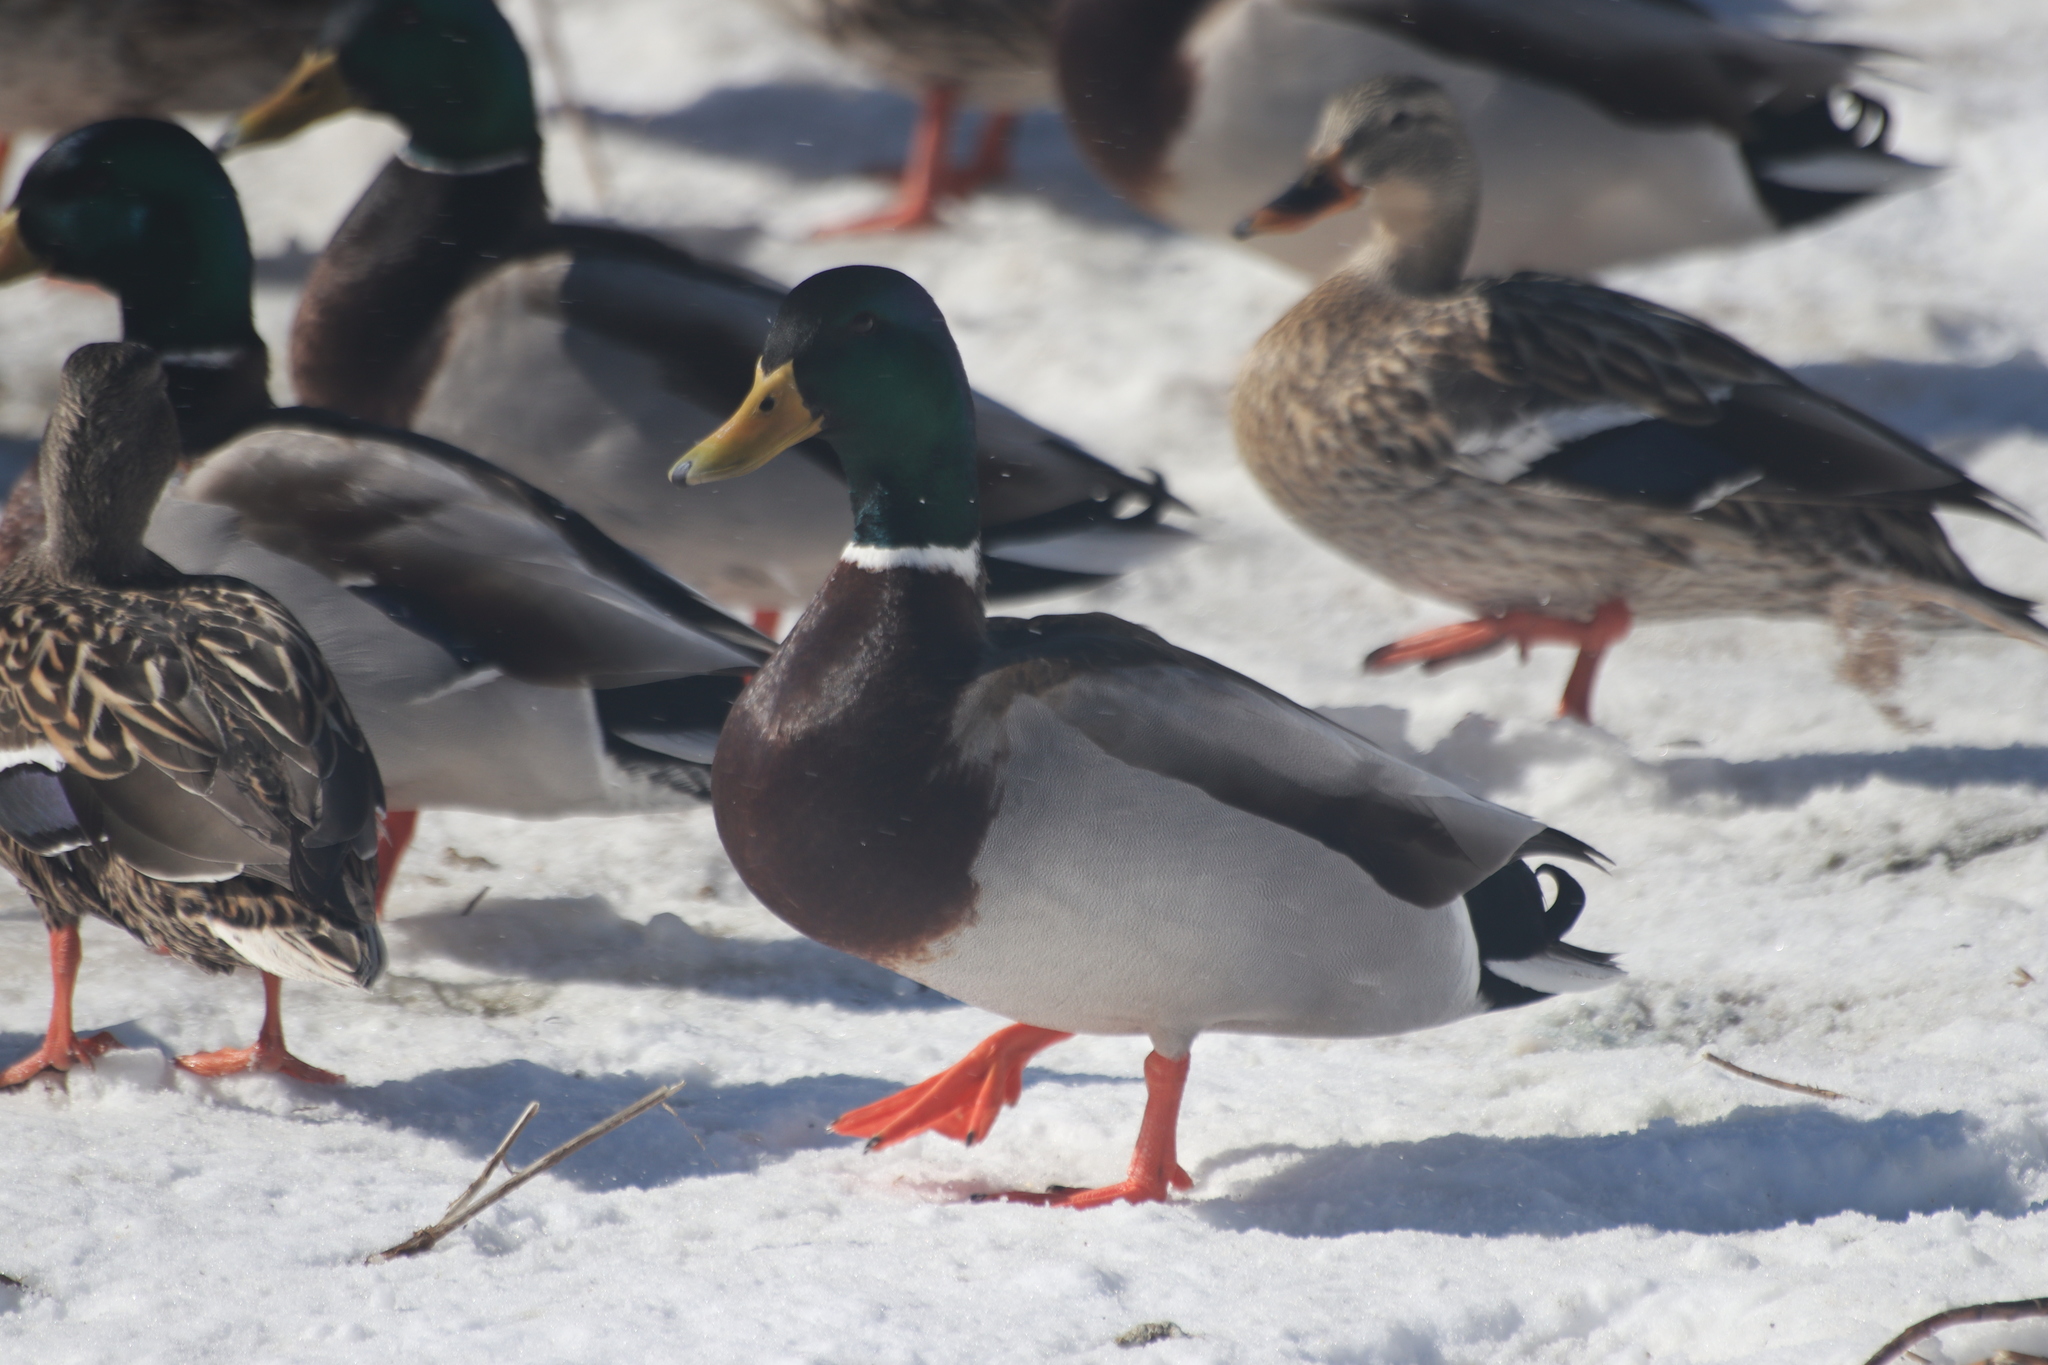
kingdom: Animalia
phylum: Chordata
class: Aves
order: Anseriformes
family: Anatidae
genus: Anas
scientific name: Anas platyrhynchos
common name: Mallard
